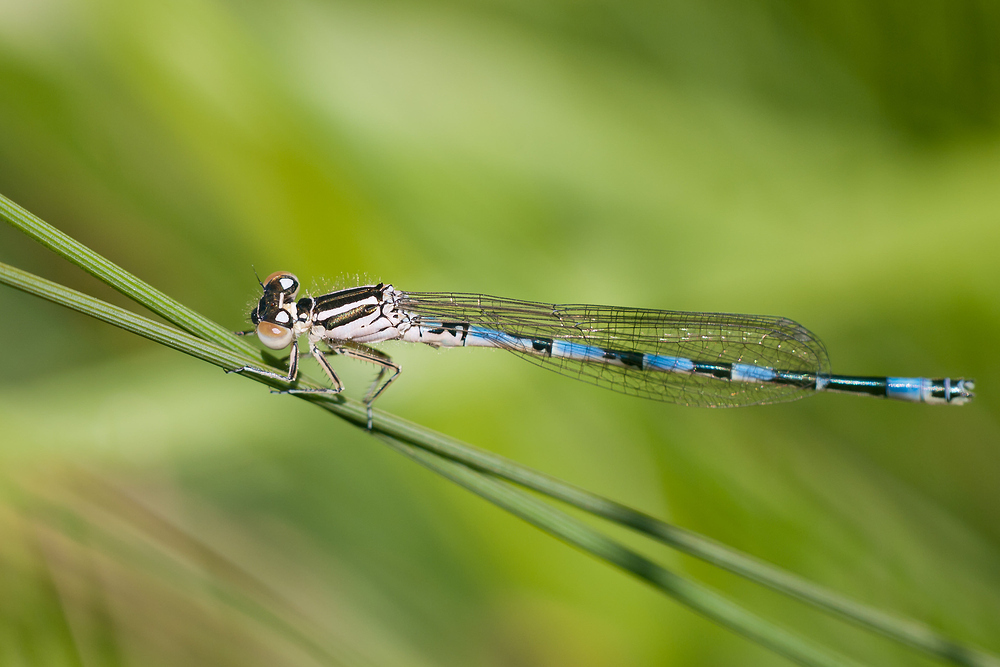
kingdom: Animalia
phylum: Arthropoda
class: Insecta
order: Odonata
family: Coenagrionidae
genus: Coenagrion
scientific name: Coenagrion mercuriale
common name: Southern damselfly
